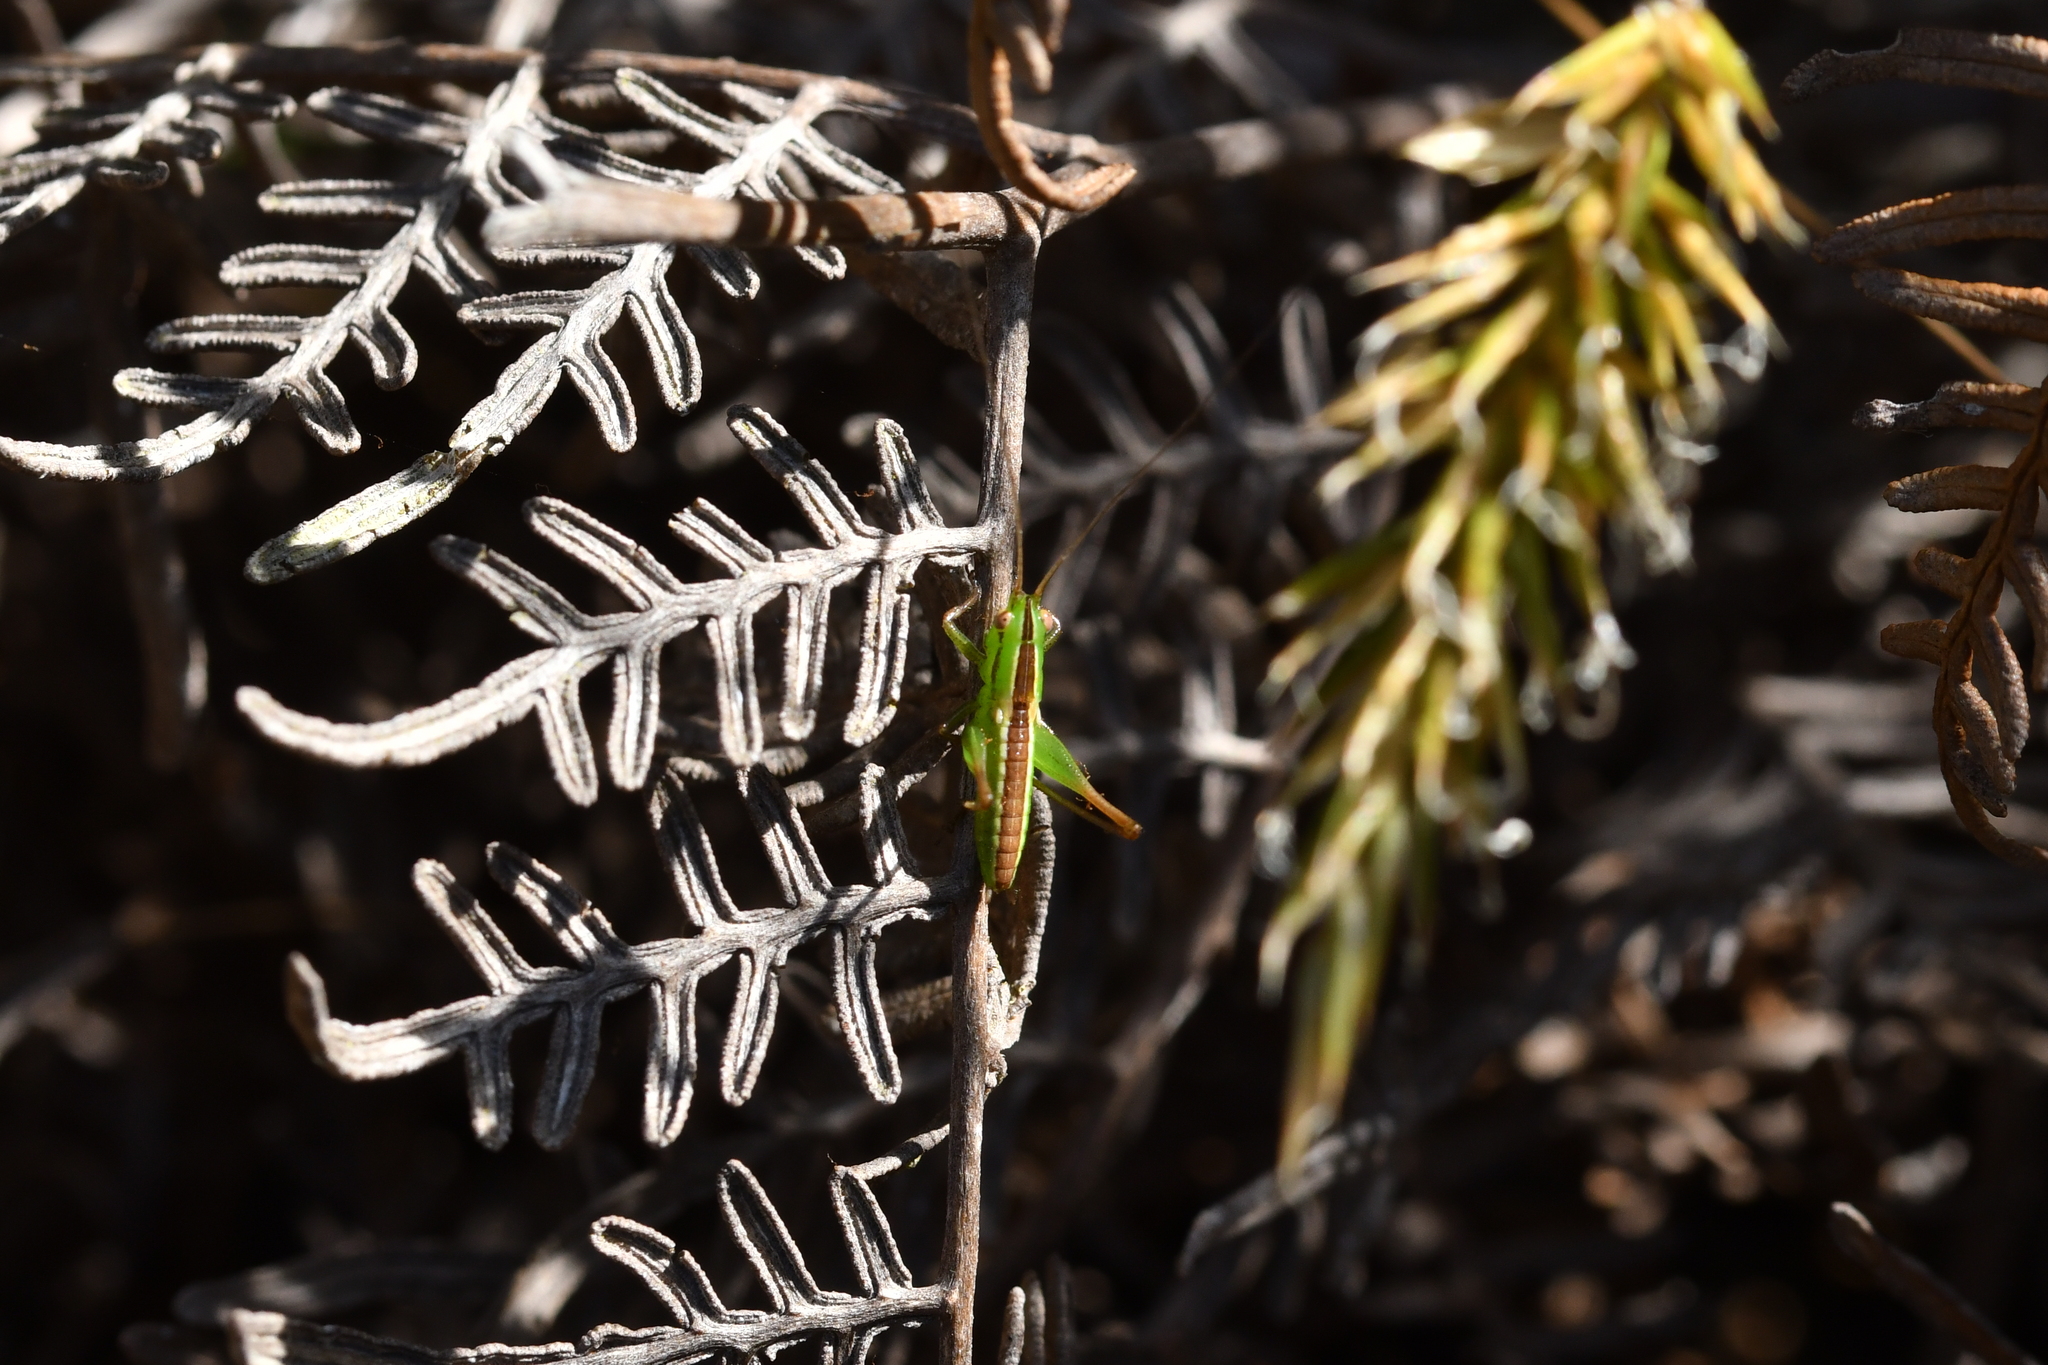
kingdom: Animalia
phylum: Arthropoda
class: Insecta
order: Orthoptera
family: Tettigoniidae
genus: Conocephalus
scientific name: Conocephalus bilineatus
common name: Small meadow katydid
